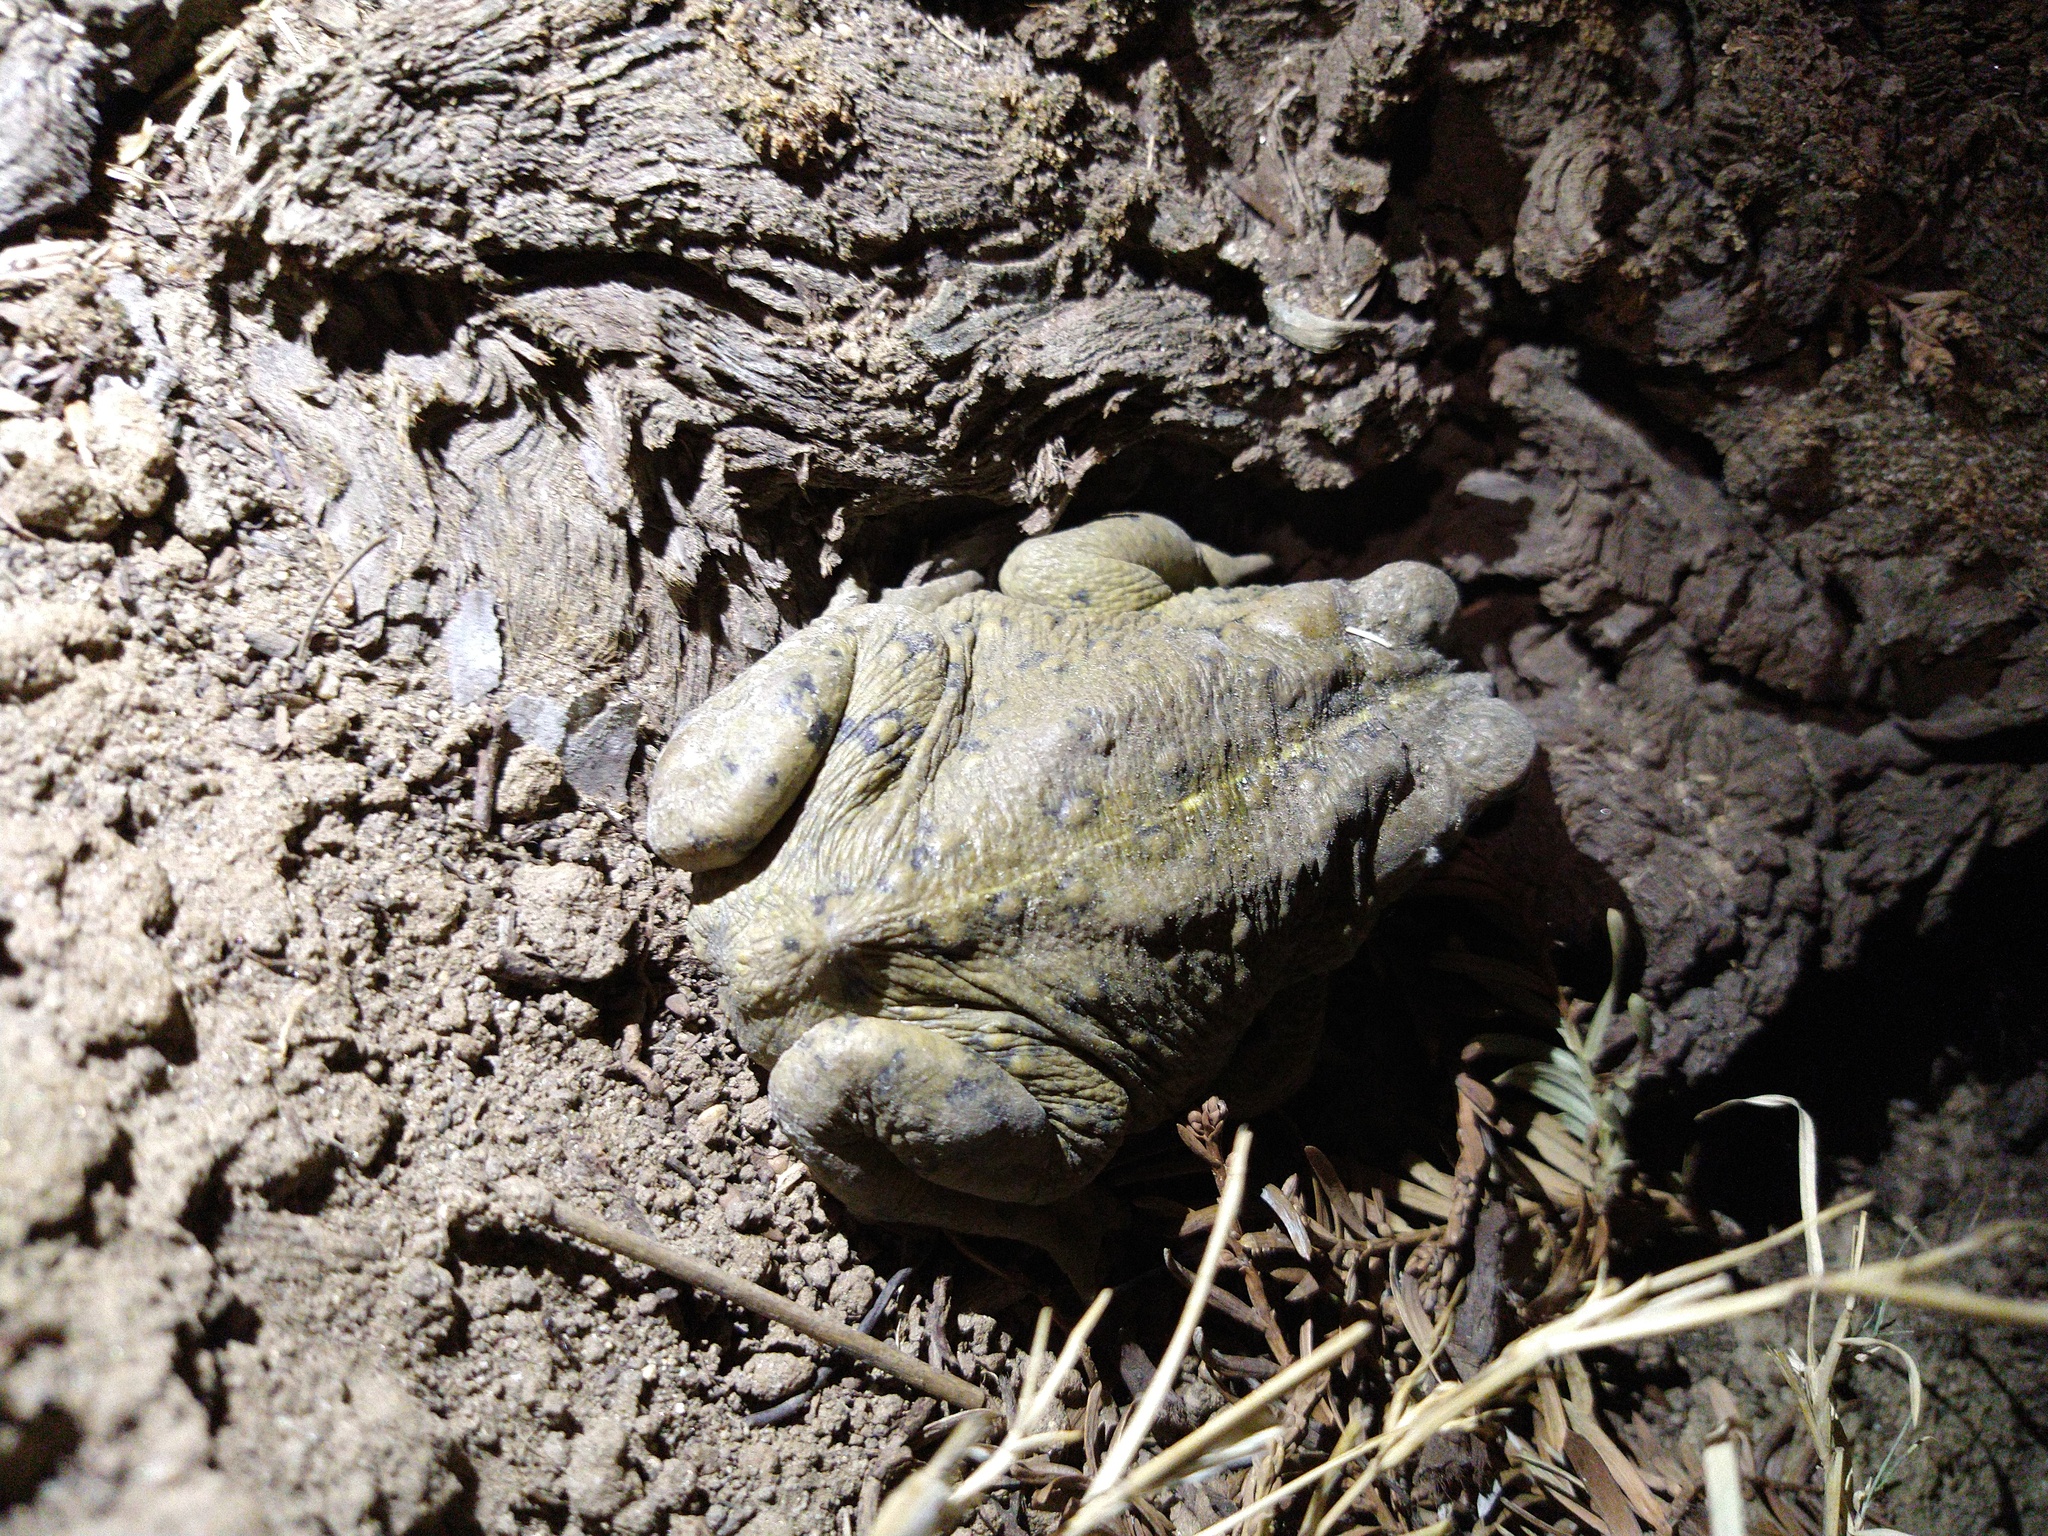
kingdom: Animalia
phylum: Chordata
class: Amphibia
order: Anura
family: Bufonidae
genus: Anaxyrus
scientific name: Anaxyrus boreas
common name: Western toad
